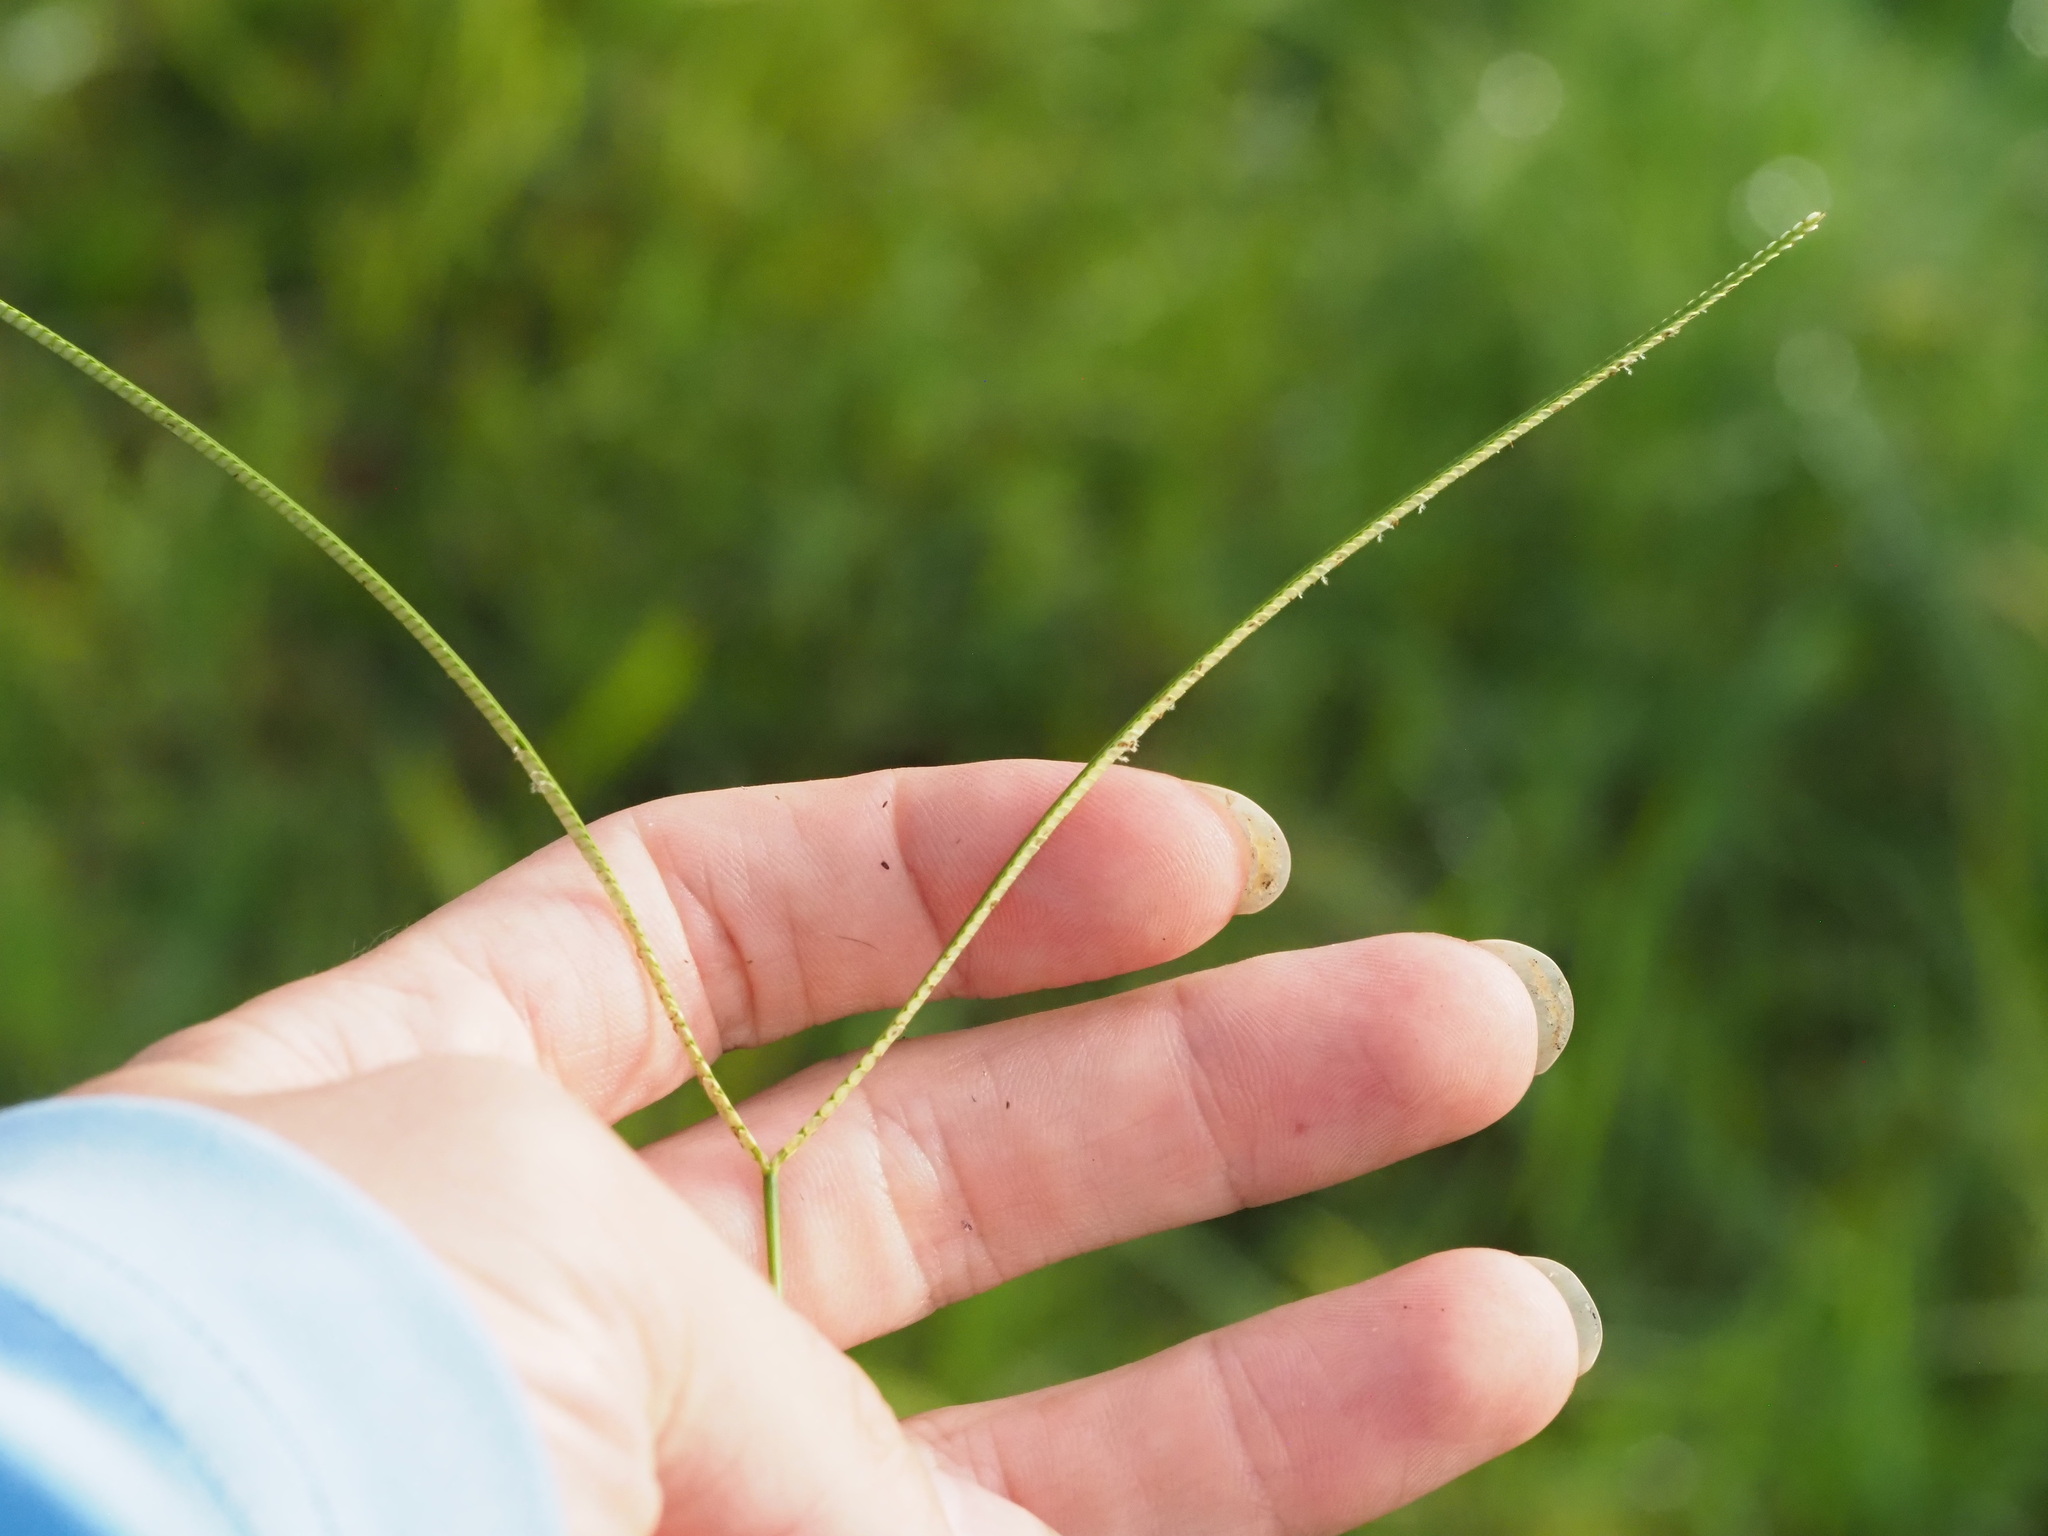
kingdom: Plantae
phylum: Tracheophyta
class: Liliopsida
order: Poales
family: Poaceae
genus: Paspalum
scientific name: Paspalum conjugatum
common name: Hilograss
